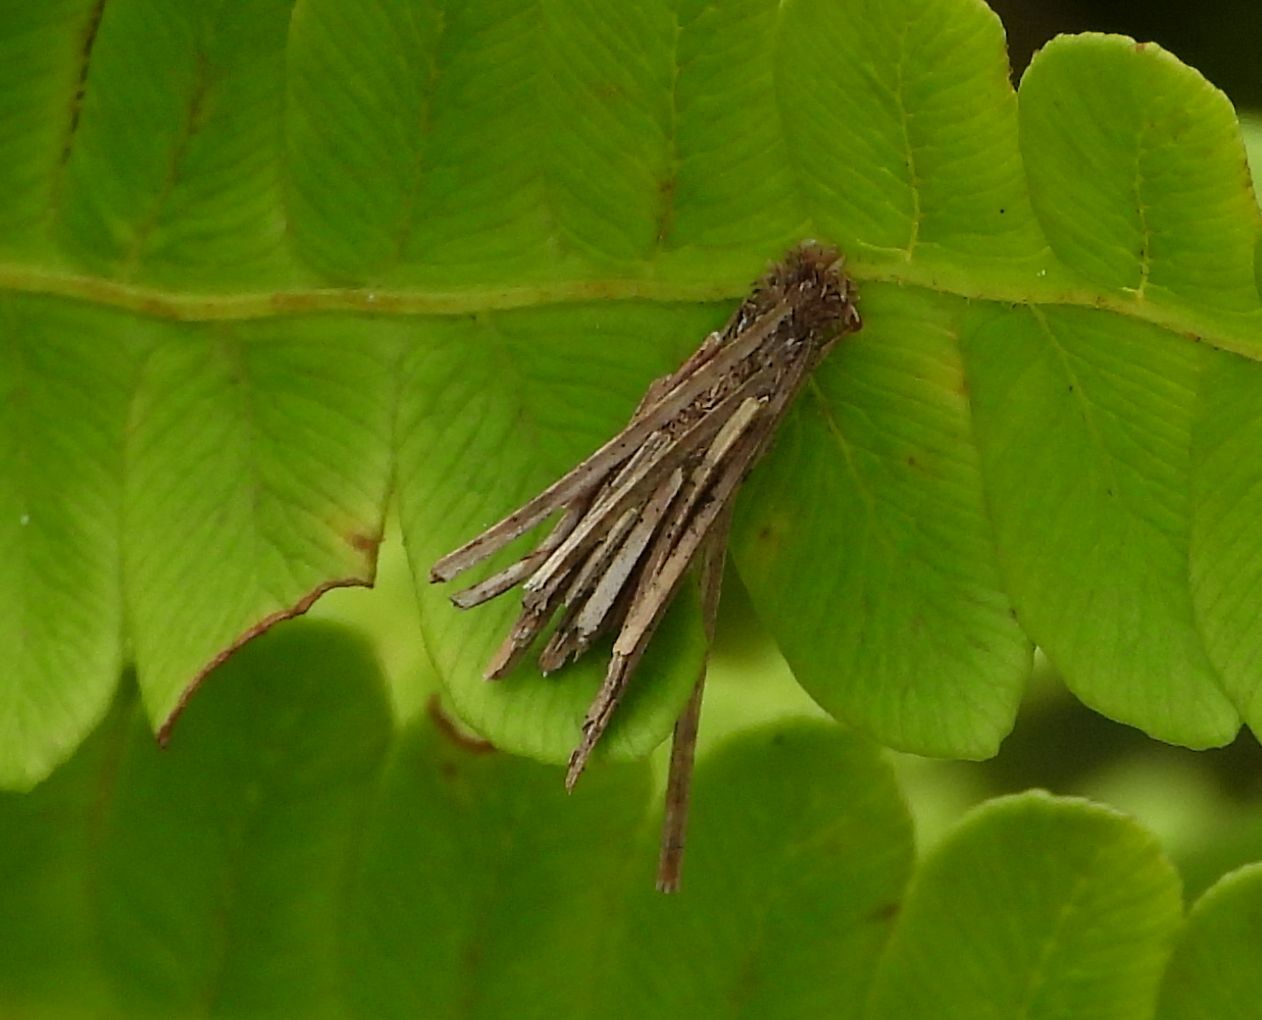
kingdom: Animalia
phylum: Arthropoda
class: Insecta
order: Lepidoptera
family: Psychidae
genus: Psyche
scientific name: Psyche casta
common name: Common sweep
